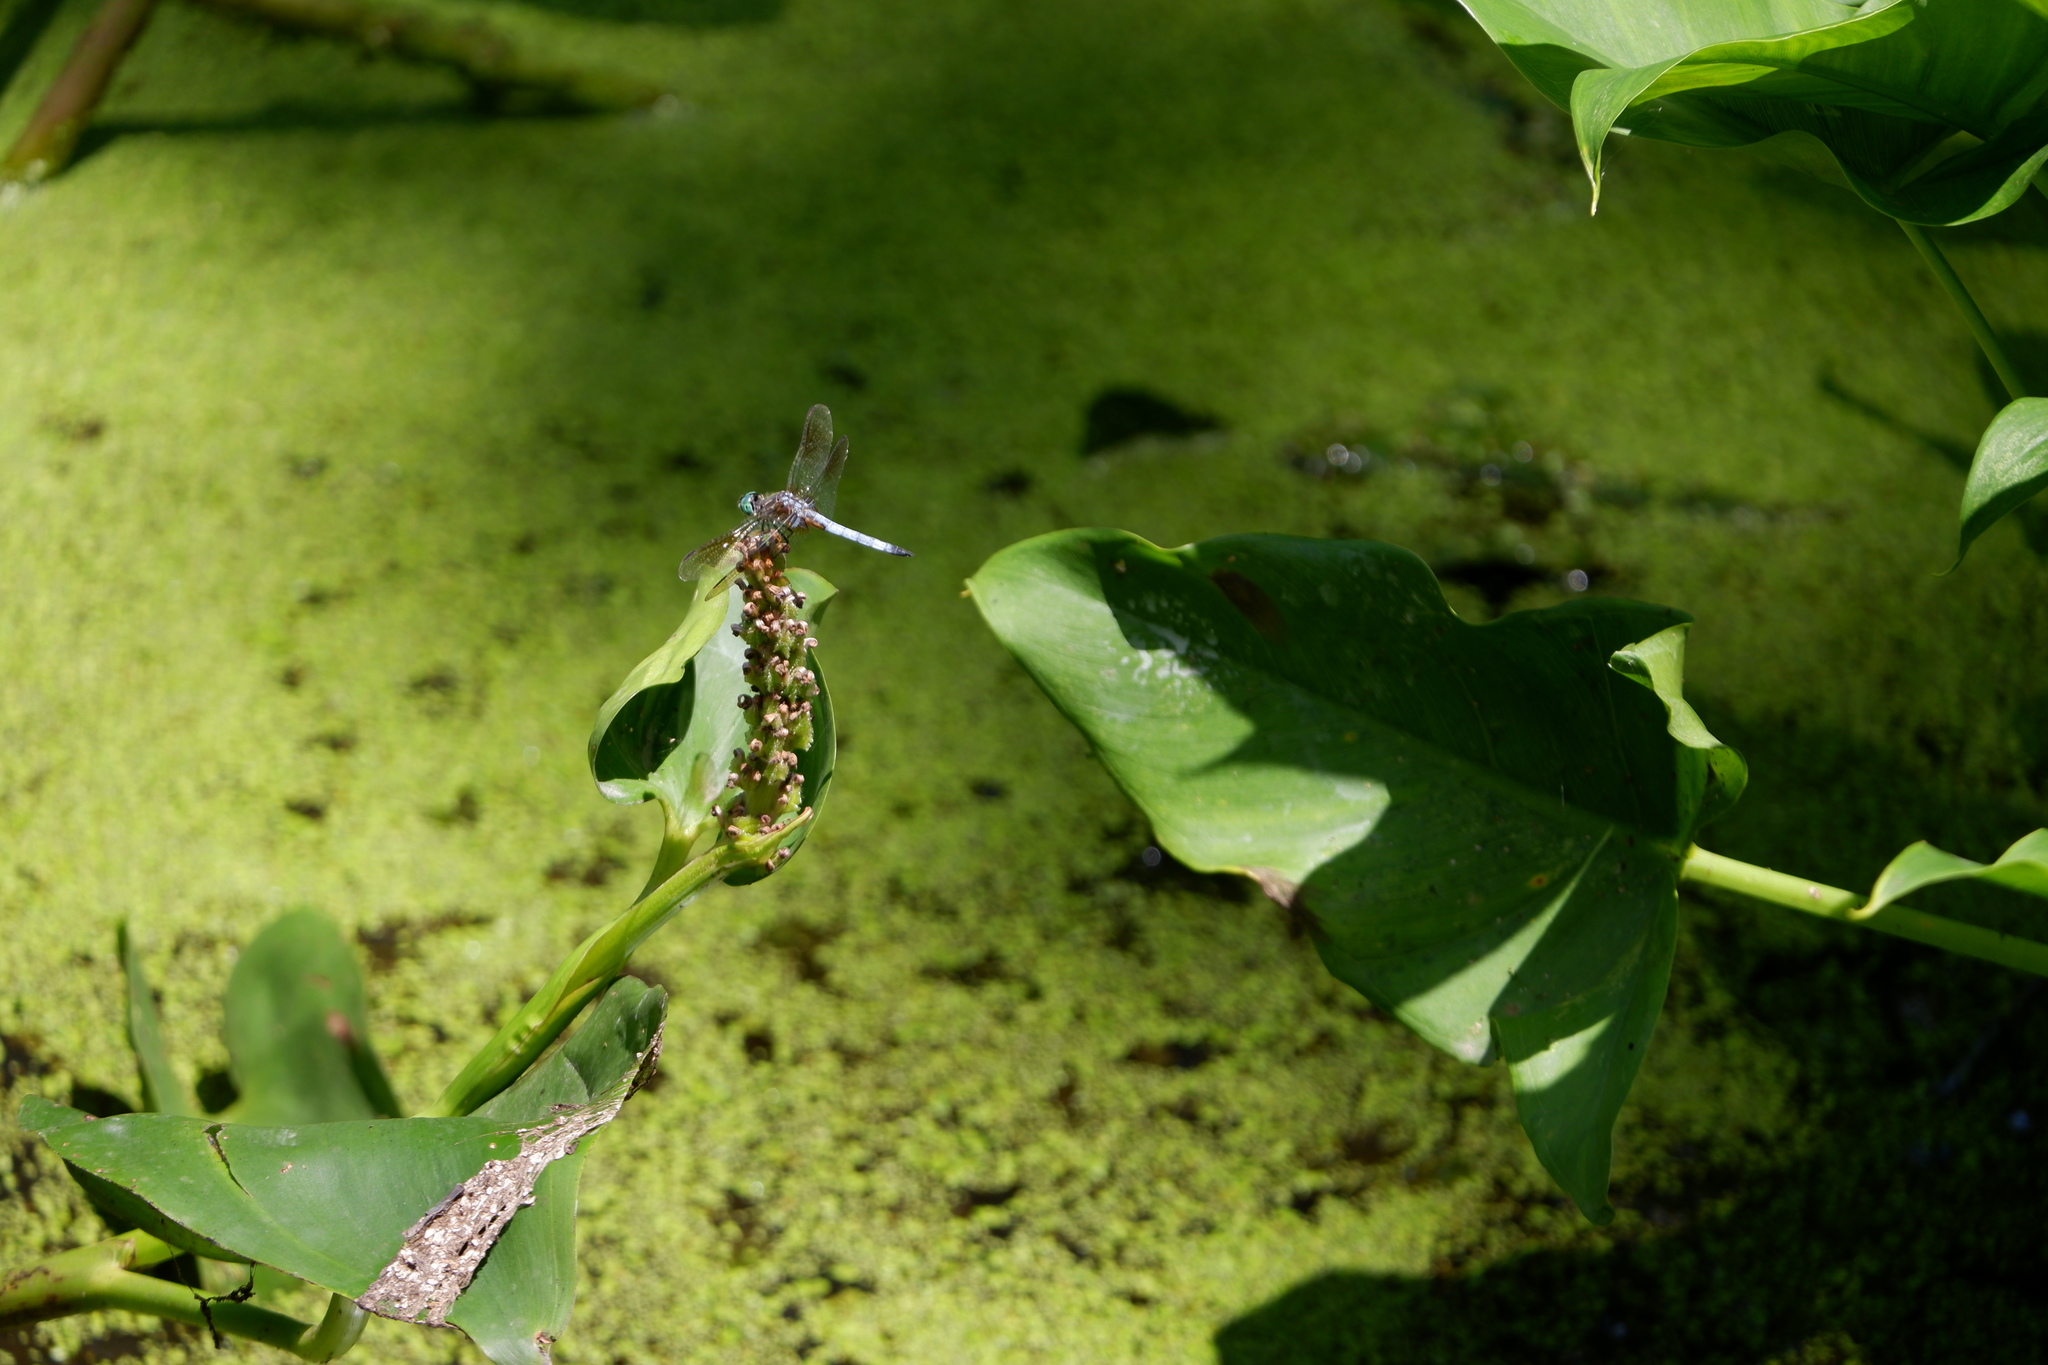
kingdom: Animalia
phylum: Arthropoda
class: Insecta
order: Odonata
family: Libellulidae
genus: Pachydiplax
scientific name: Pachydiplax longipennis
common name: Blue dasher
